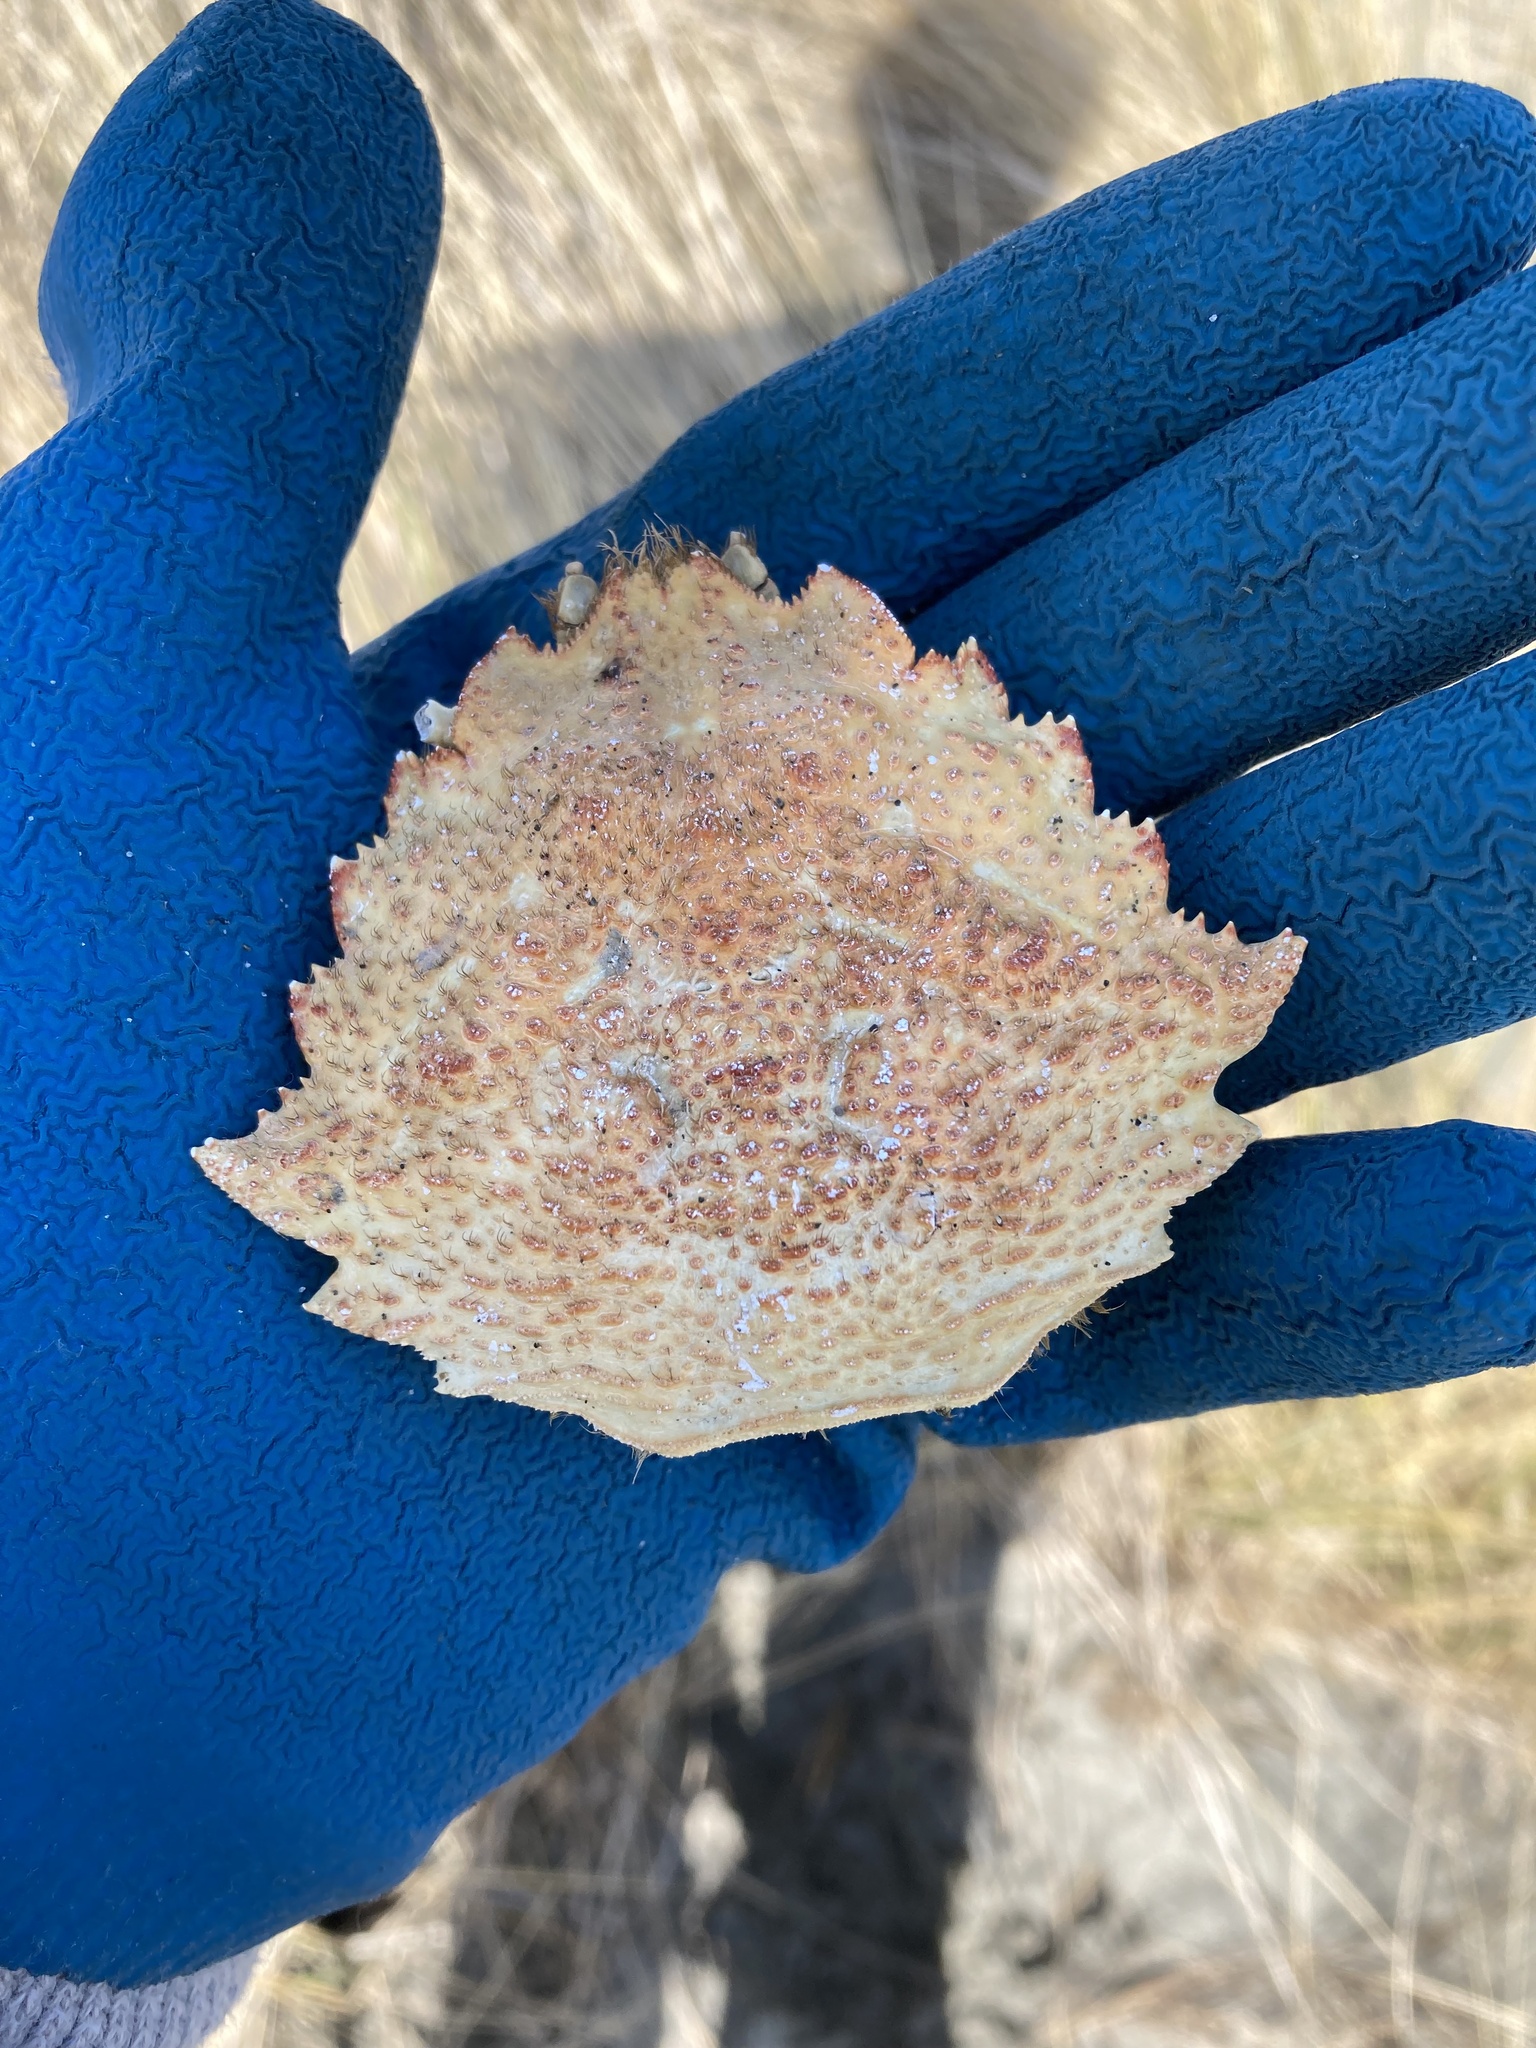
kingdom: Animalia
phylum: Arthropoda
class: Malacostraca
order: Decapoda
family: Cheiragonidae
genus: Telmessus
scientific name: Telmessus cheiragonus
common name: Helmet crab
